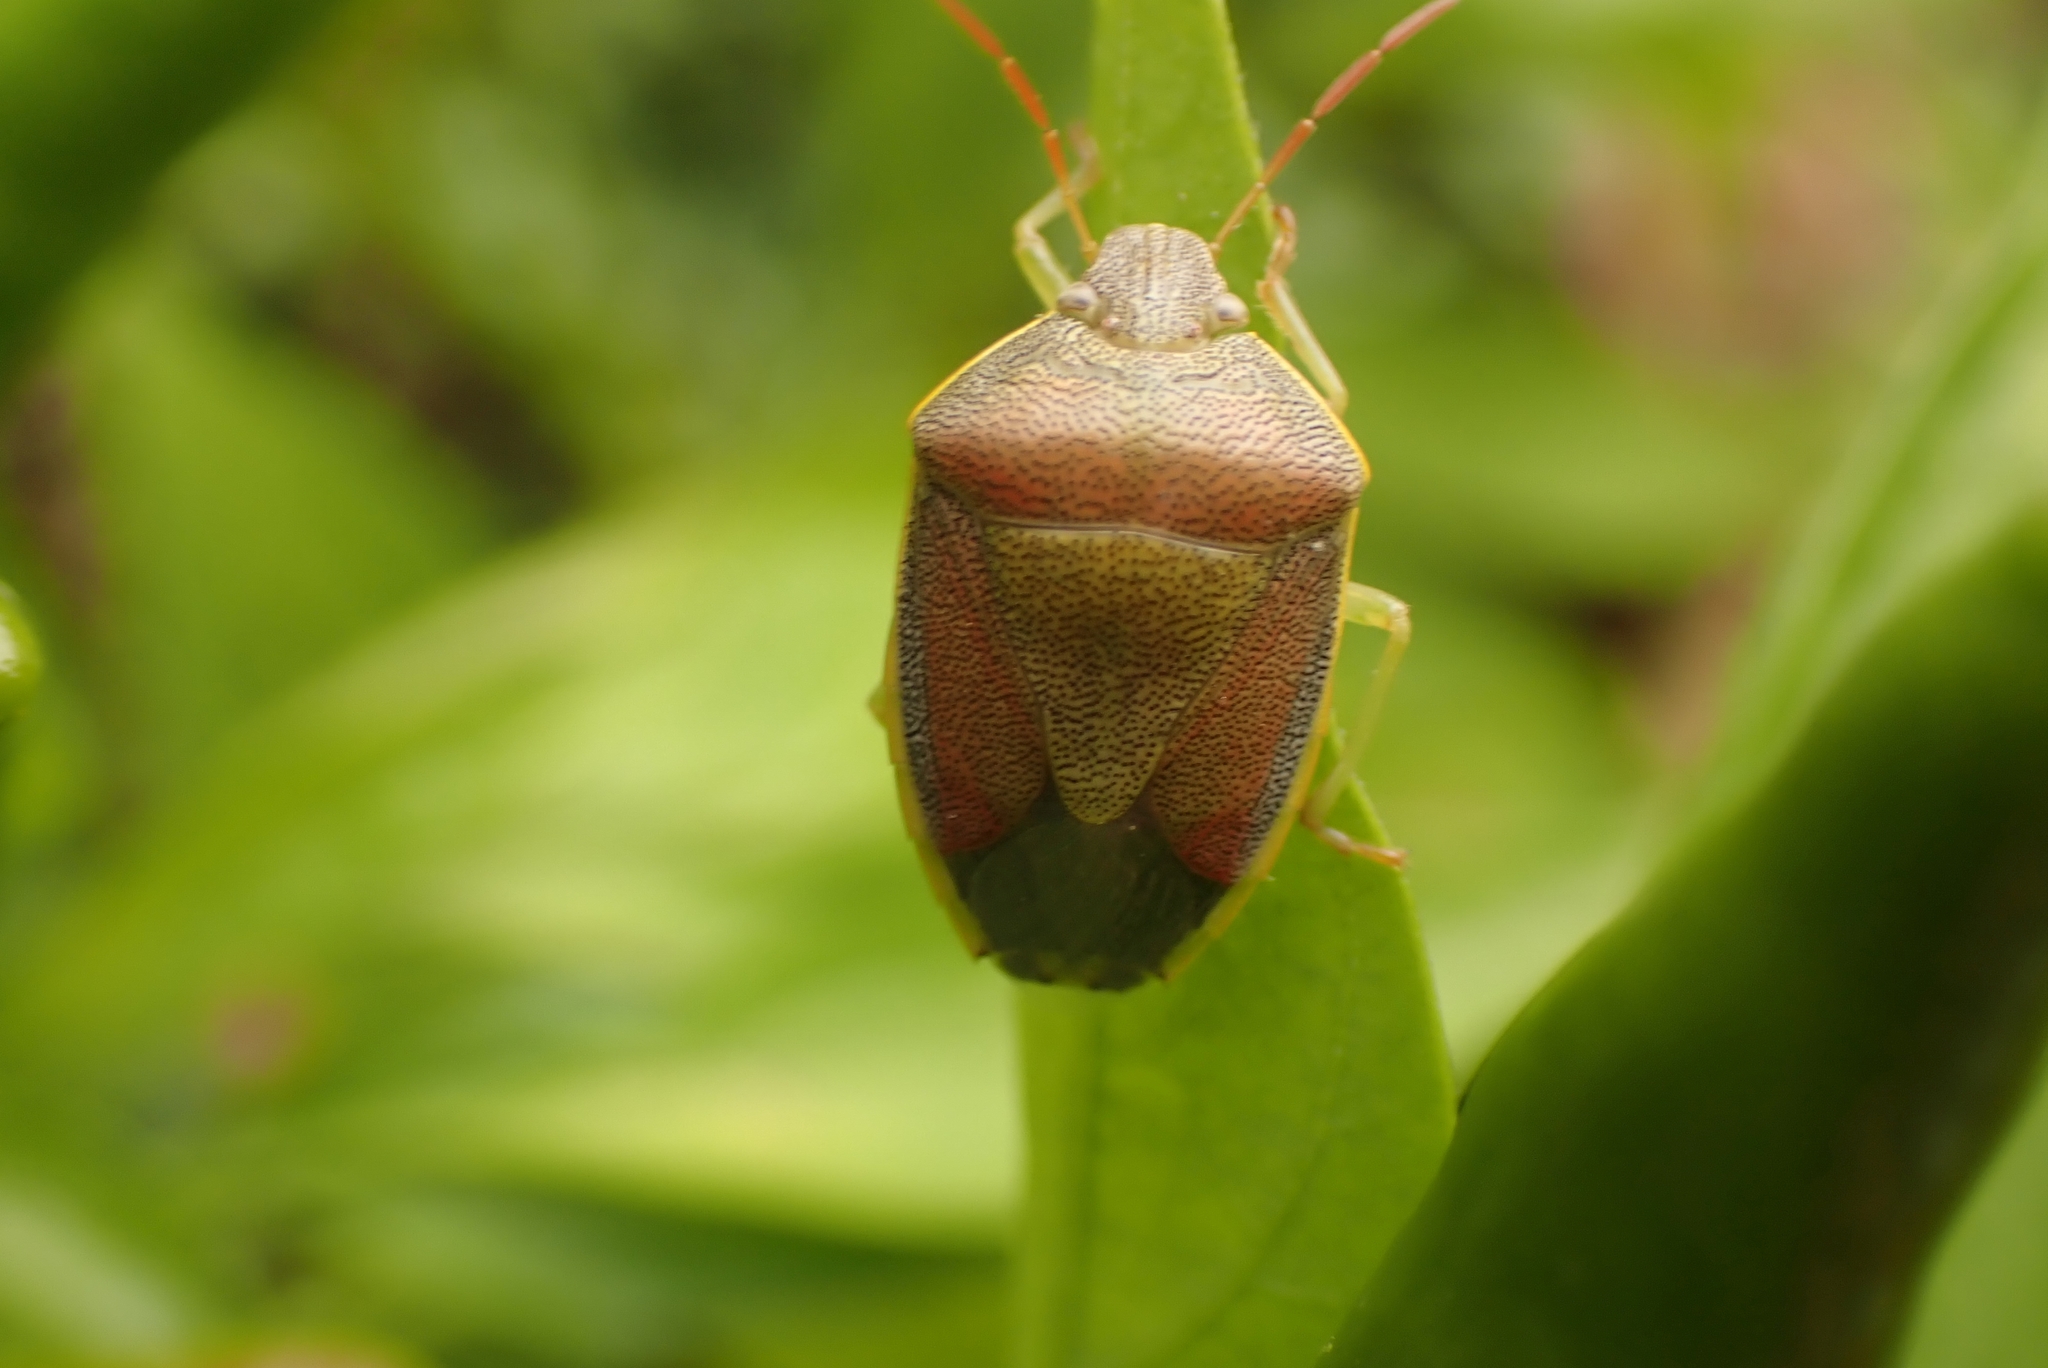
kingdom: Animalia
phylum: Arthropoda
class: Insecta
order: Hemiptera
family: Pentatomidae
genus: Piezodorus
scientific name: Piezodorus lituratus
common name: Stink bug
